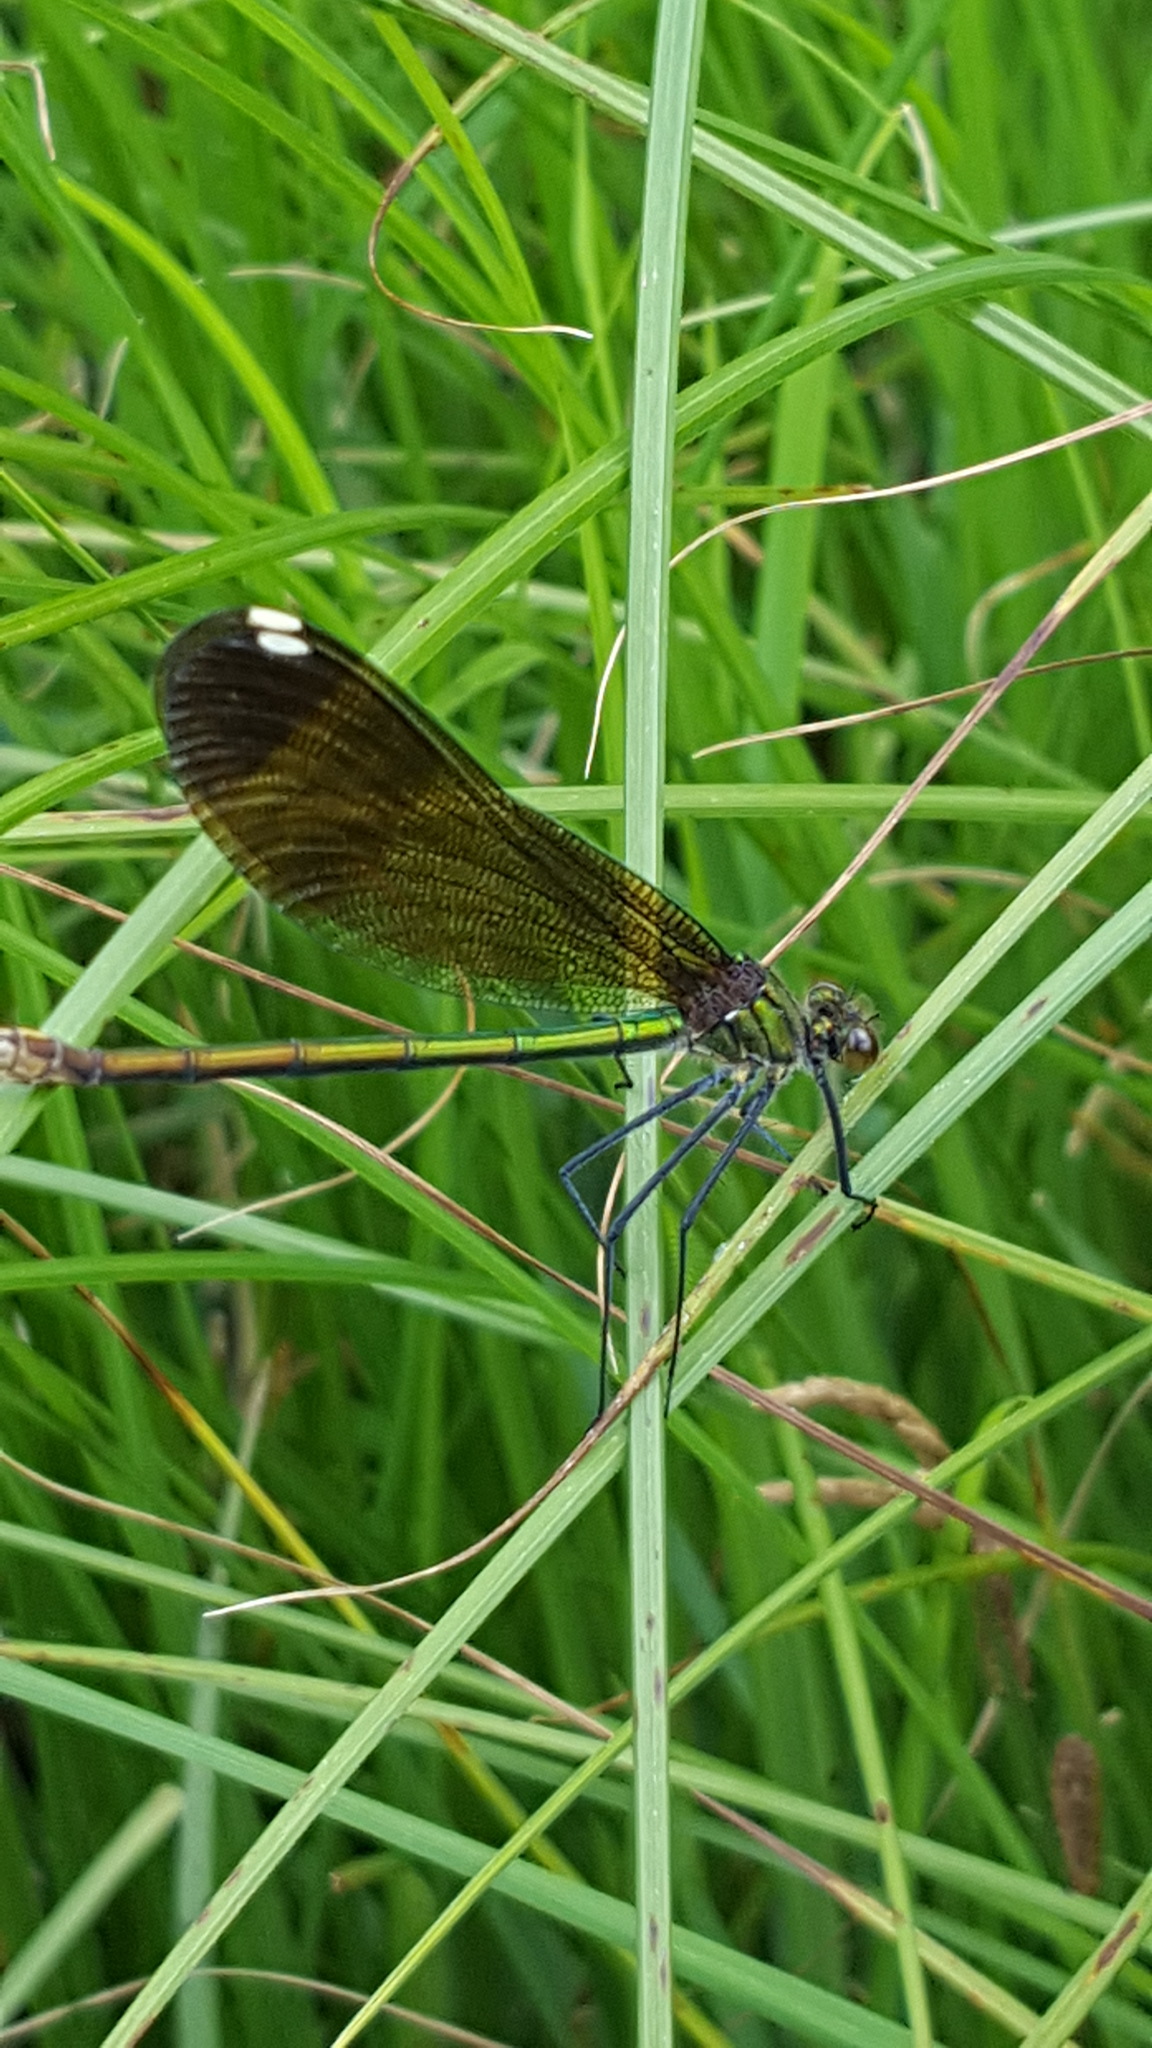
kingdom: Animalia
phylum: Arthropoda
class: Insecta
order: Odonata
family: Calopterygidae
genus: Calopteryx
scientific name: Calopteryx maculata
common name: Ebony jewelwing
